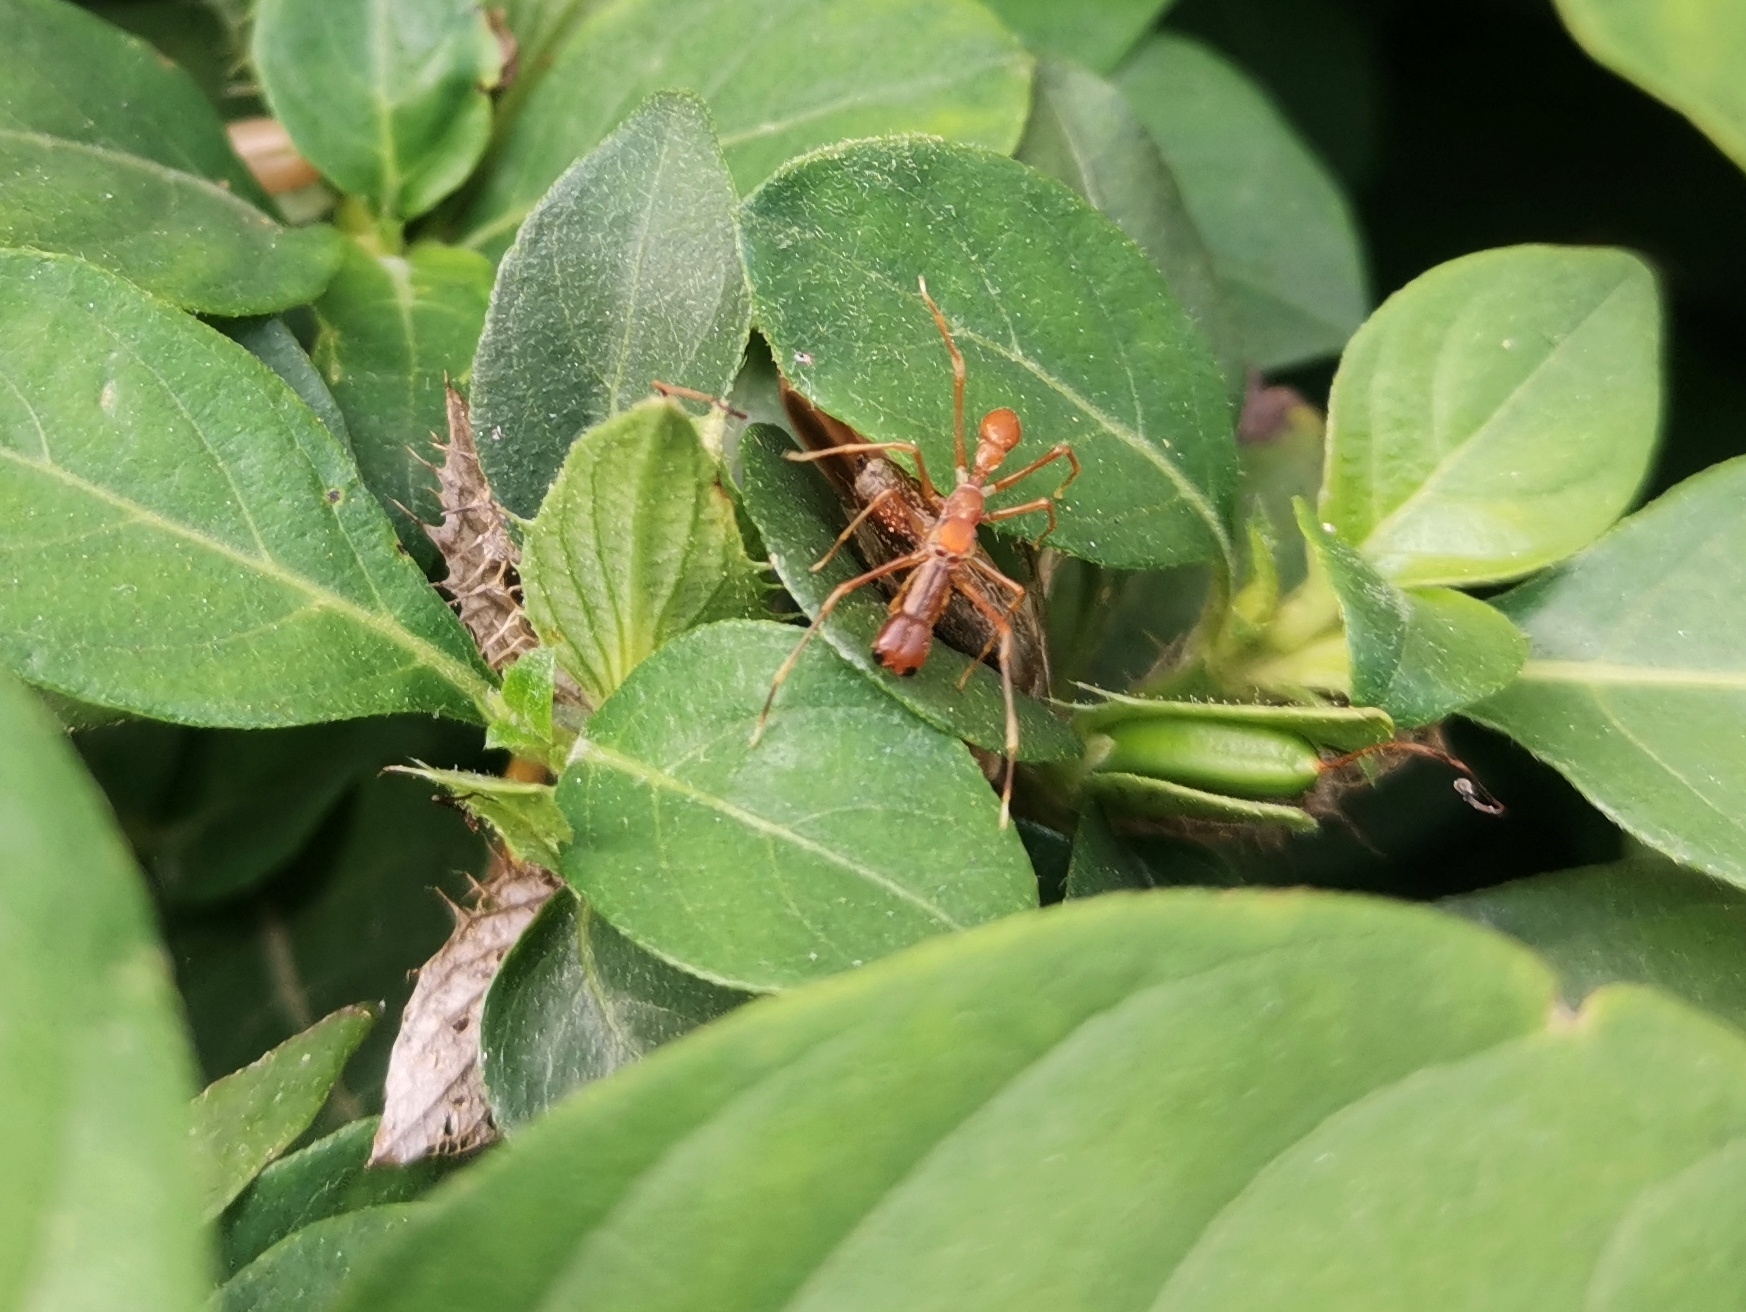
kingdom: Animalia
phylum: Arthropoda
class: Arachnida
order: Araneae
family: Salticidae
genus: Myrmaplata
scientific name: Myrmaplata plataleoides
